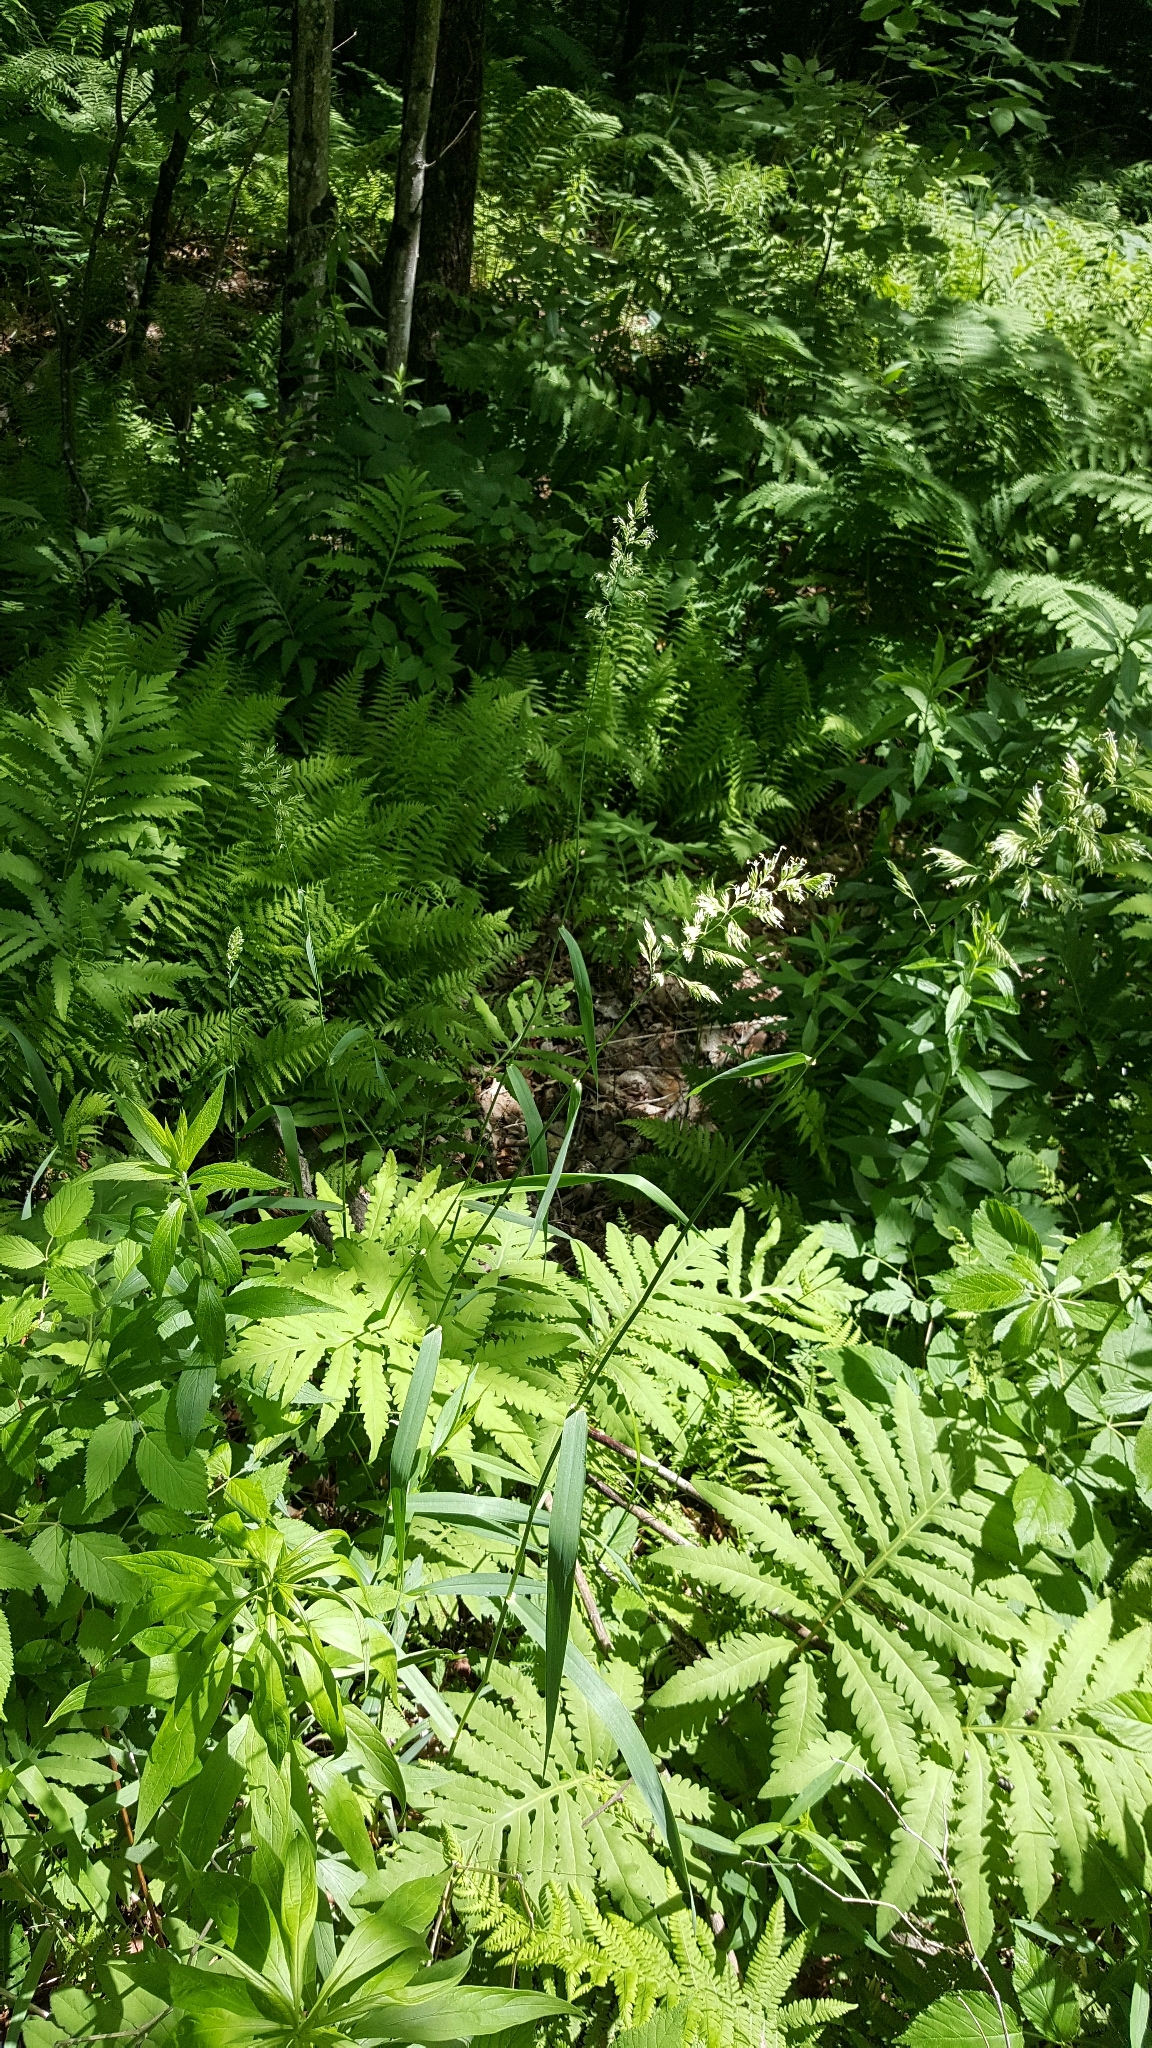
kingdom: Plantae
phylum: Tracheophyta
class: Liliopsida
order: Poales
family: Poaceae
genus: Phalaris
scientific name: Phalaris arundinacea
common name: Reed canary-grass
